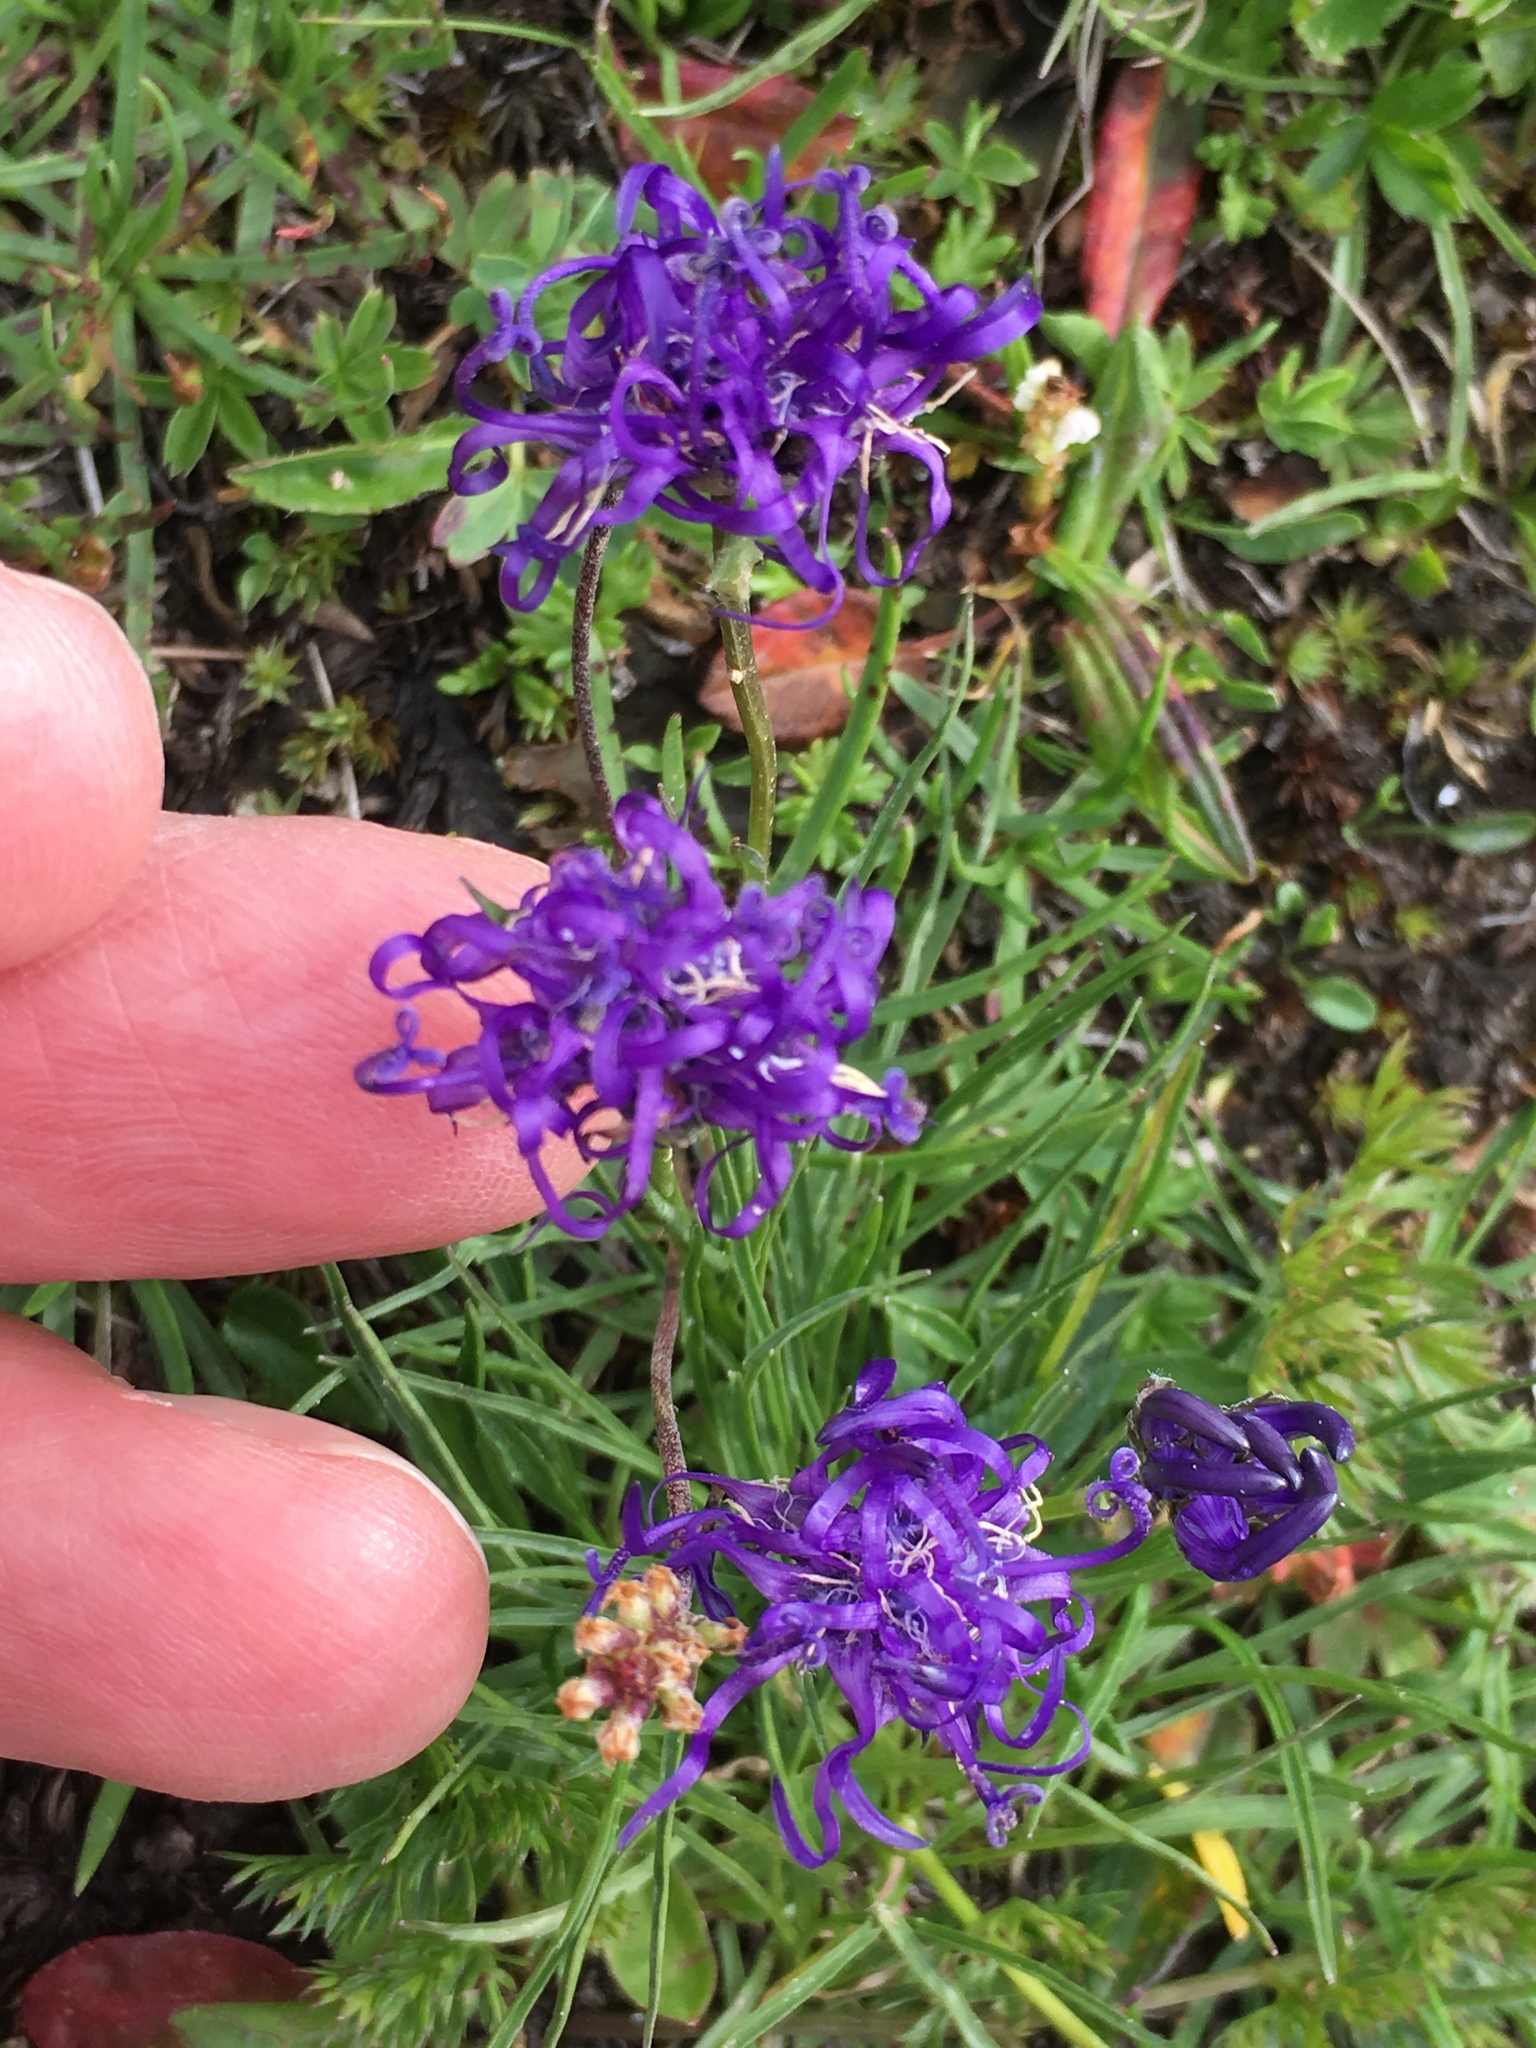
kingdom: Plantae
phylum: Tracheophyta
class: Magnoliopsida
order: Asterales
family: Campanulaceae
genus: Phyteuma
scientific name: Phyteuma hemisphaericum
